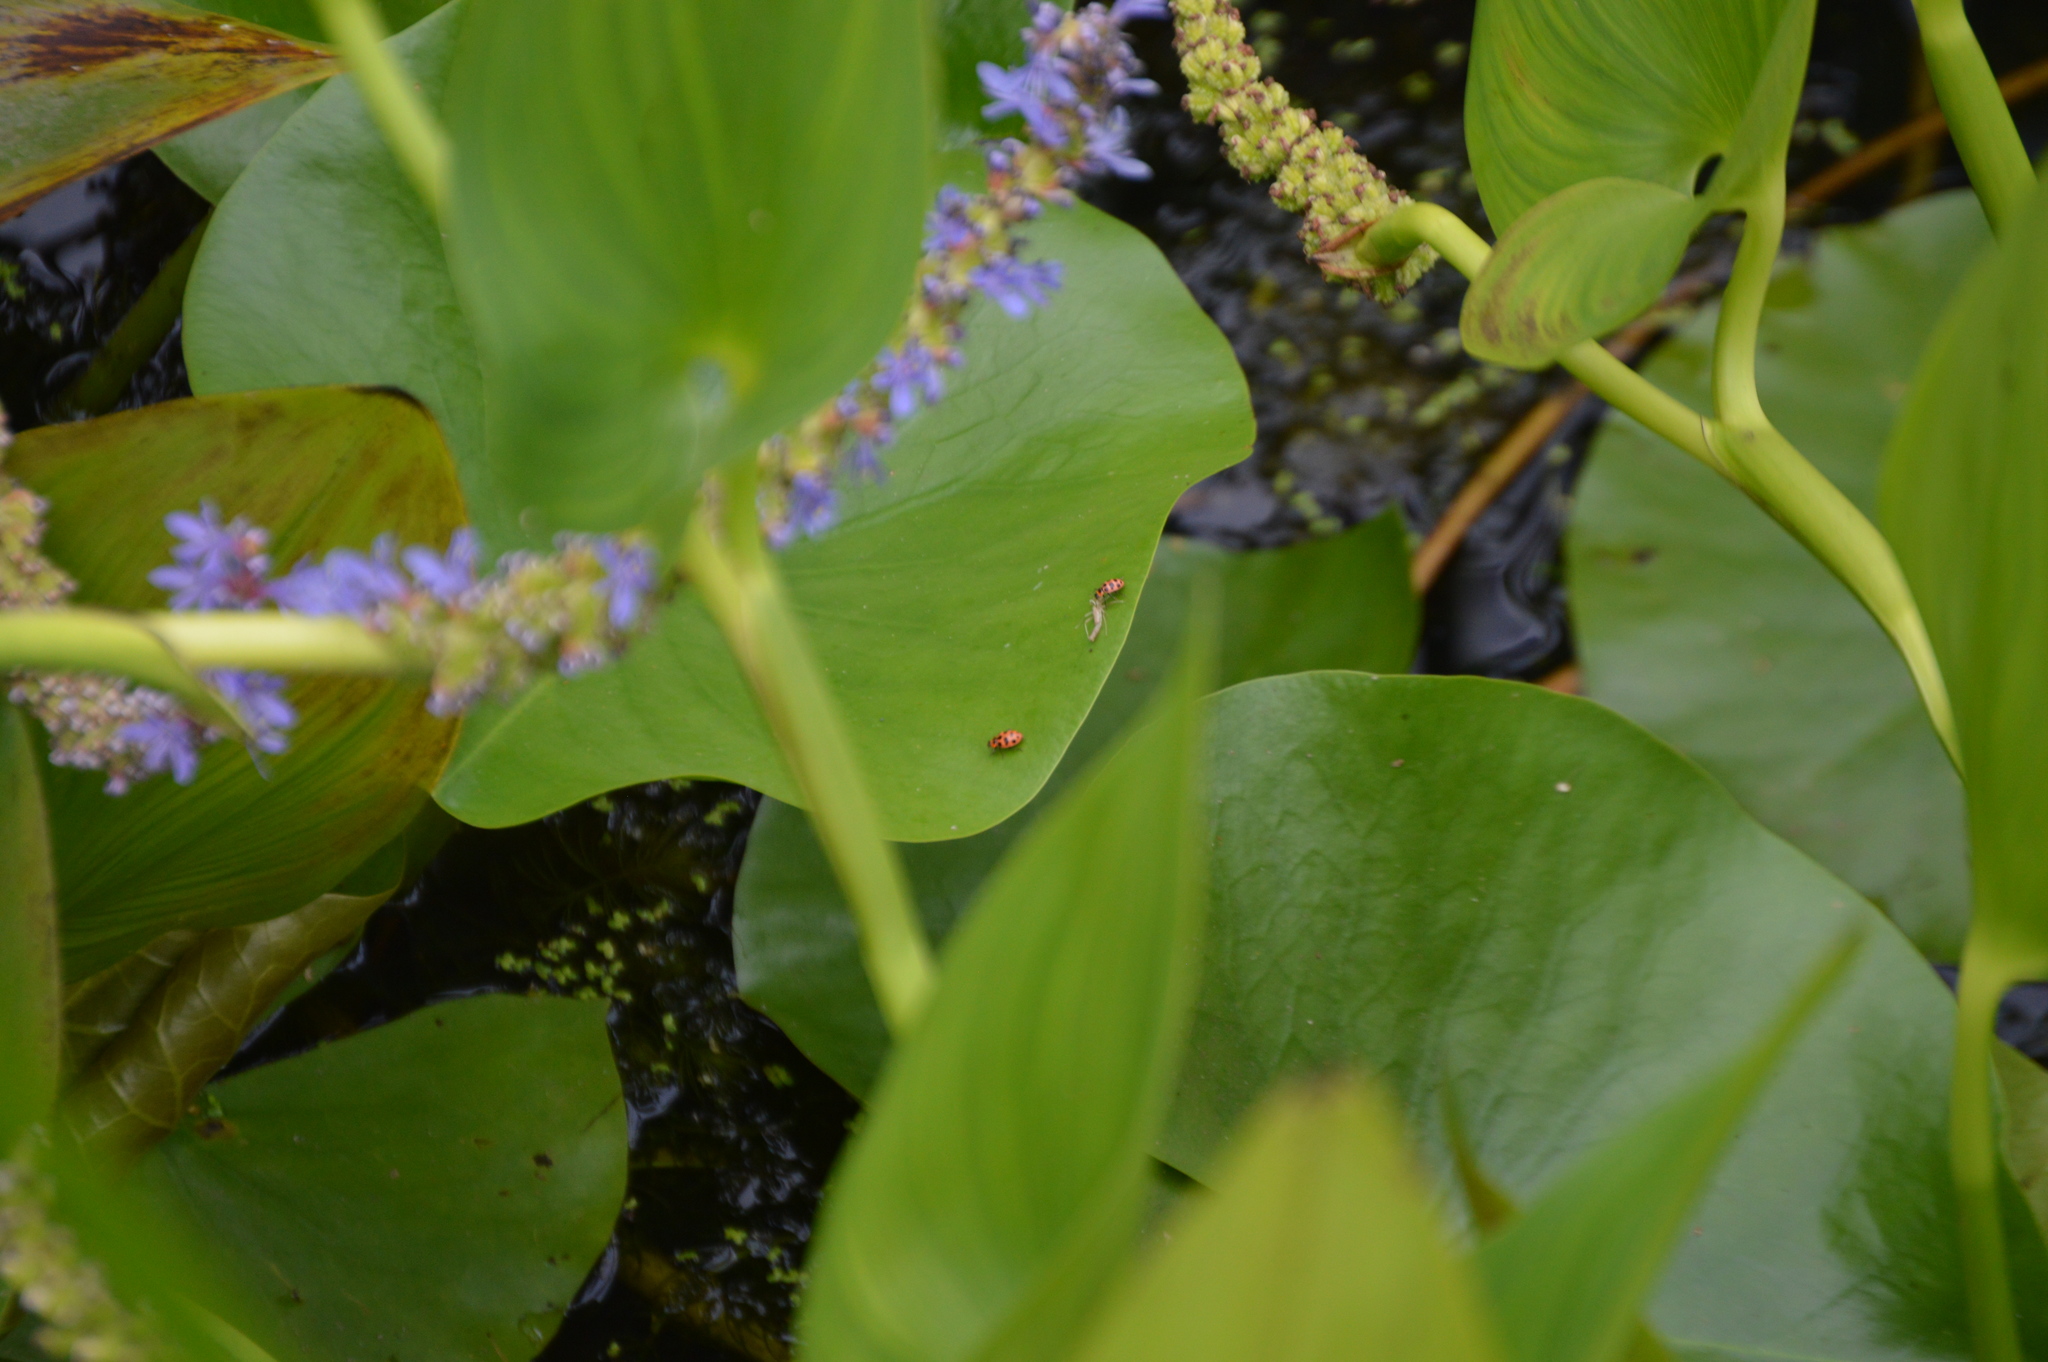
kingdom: Animalia
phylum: Arthropoda
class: Insecta
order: Coleoptera
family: Coccinellidae
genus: Coleomegilla
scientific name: Coleomegilla maculata
